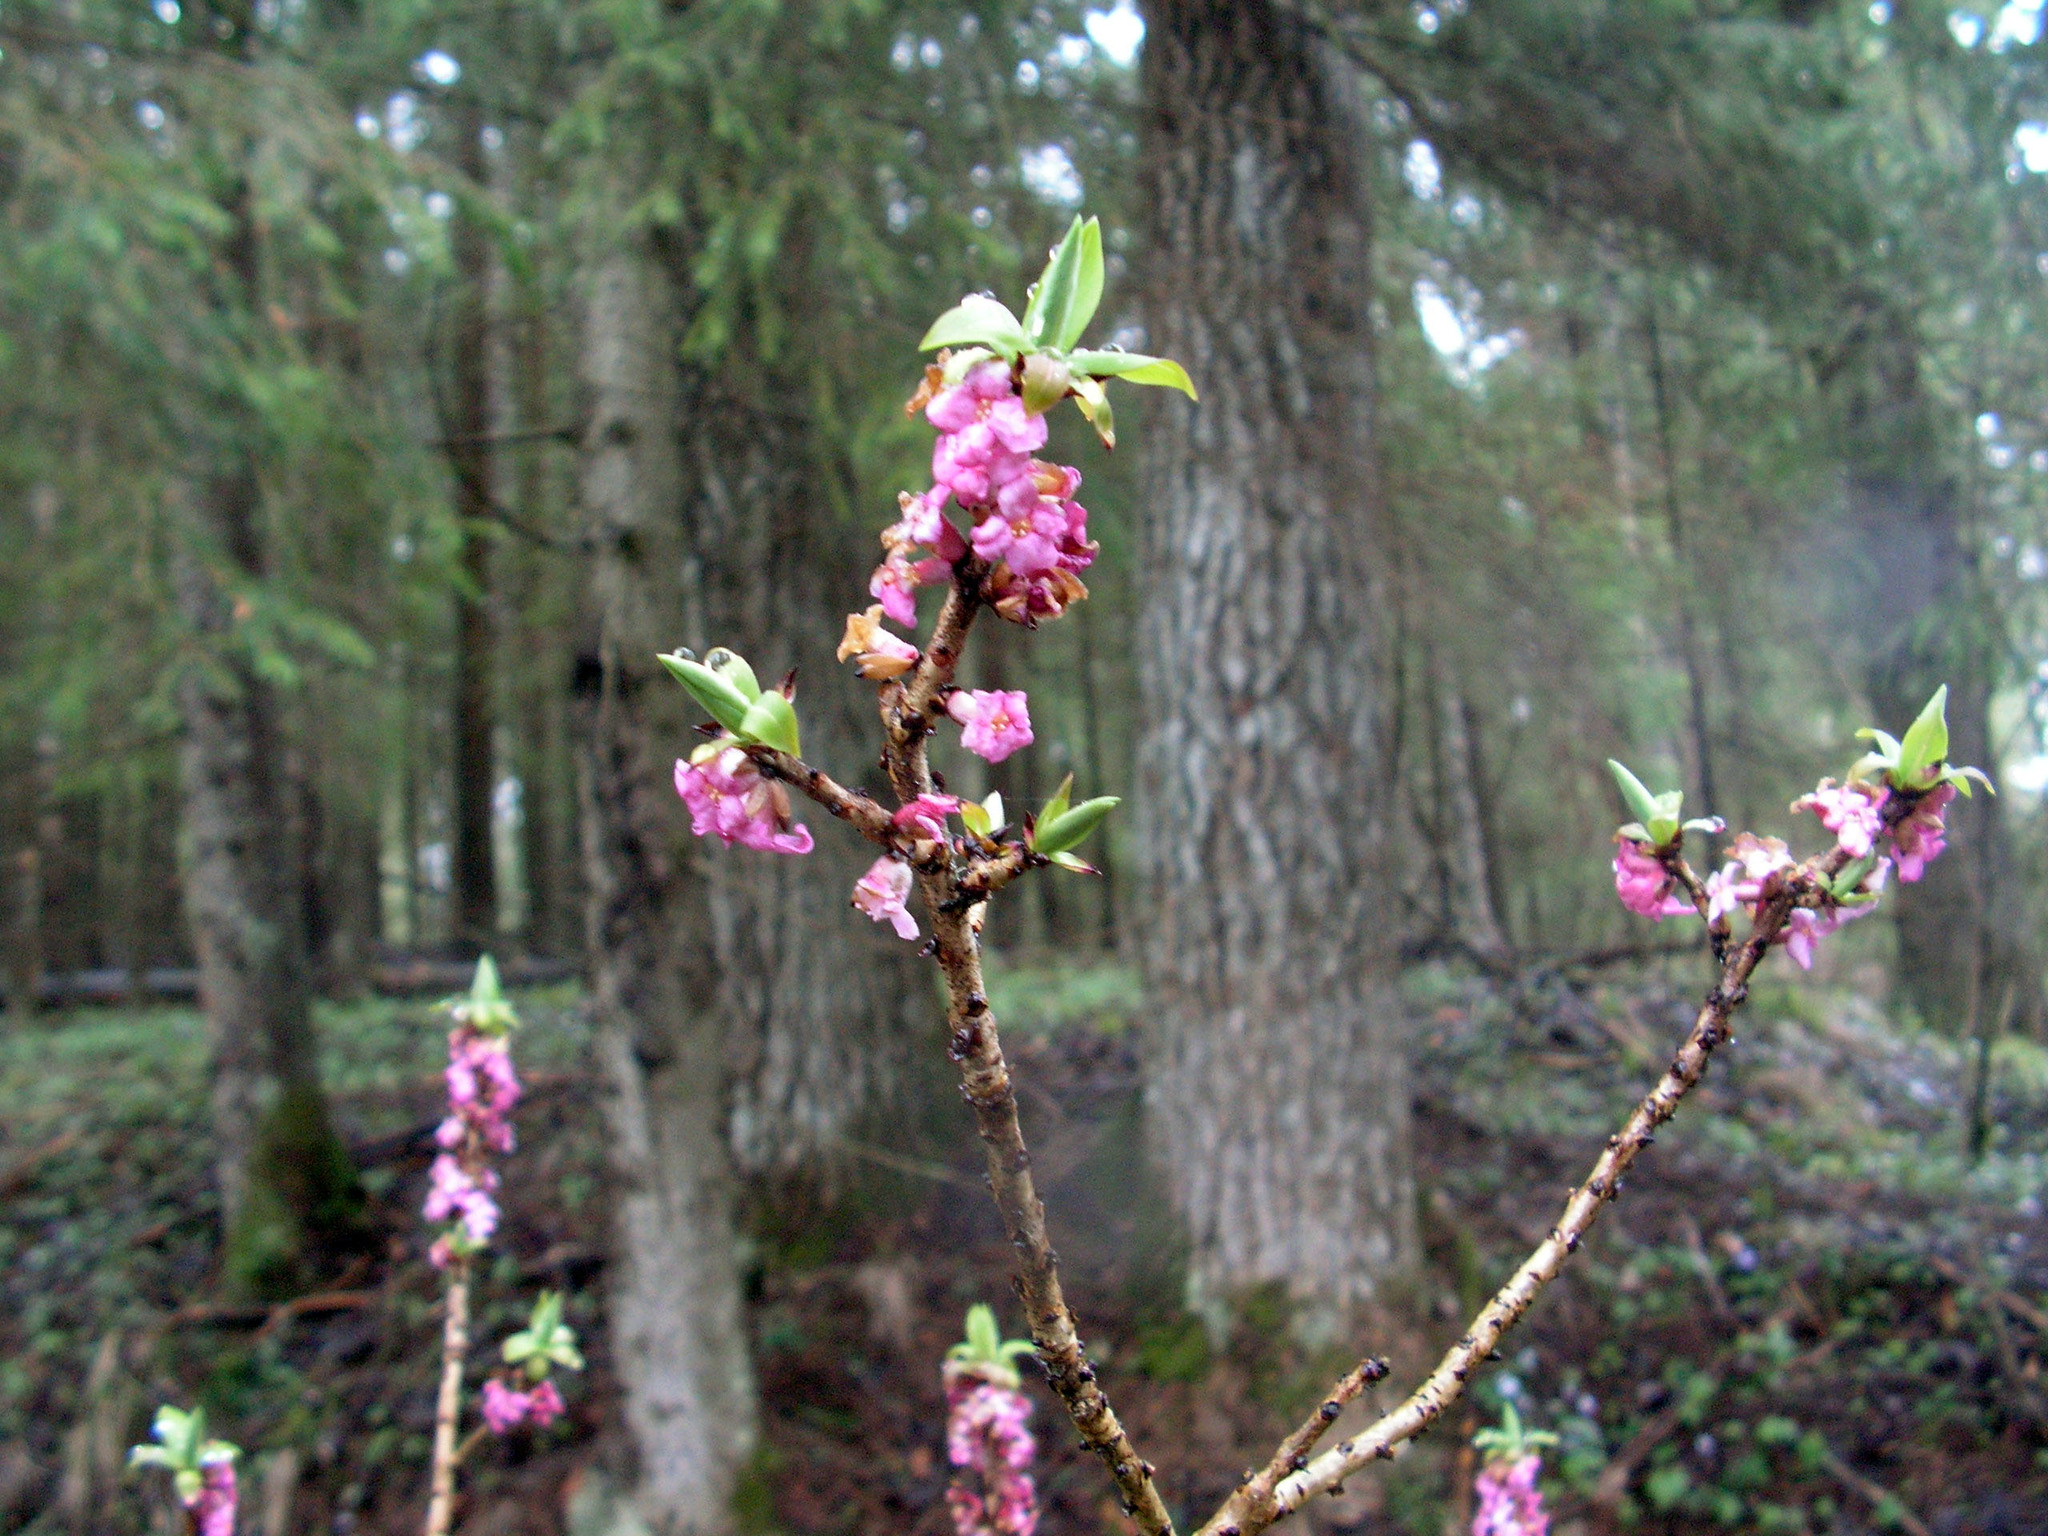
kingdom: Plantae
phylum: Tracheophyta
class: Magnoliopsida
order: Malvales
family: Thymelaeaceae
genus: Daphne
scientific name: Daphne mezereum
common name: Mezereon
